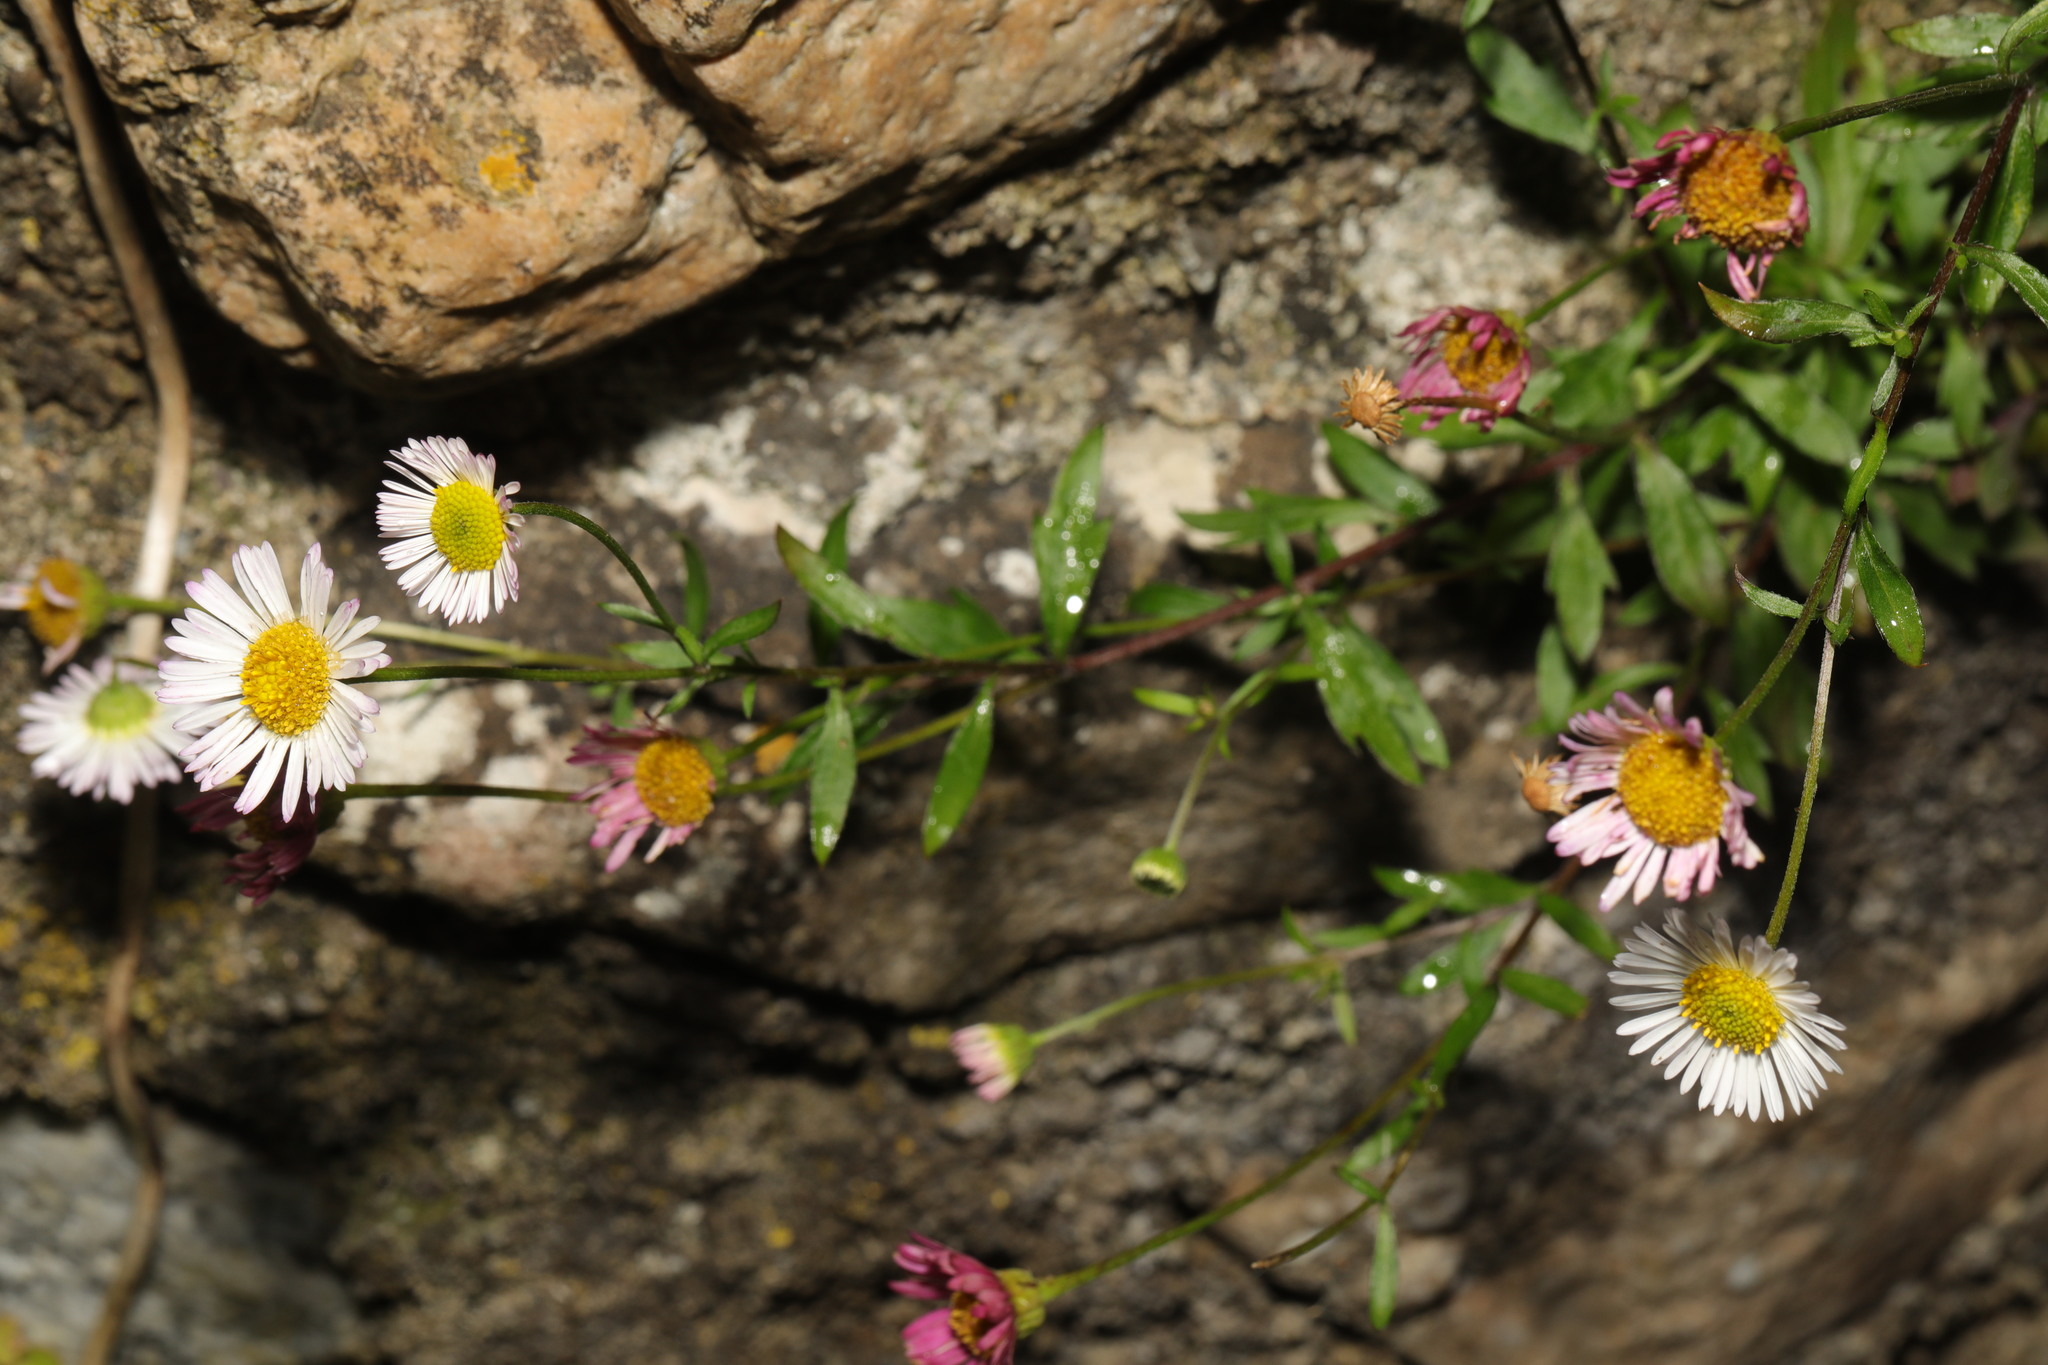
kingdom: Plantae
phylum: Tracheophyta
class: Magnoliopsida
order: Asterales
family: Asteraceae
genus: Erigeron
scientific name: Erigeron karvinskianus
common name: Mexican fleabane
